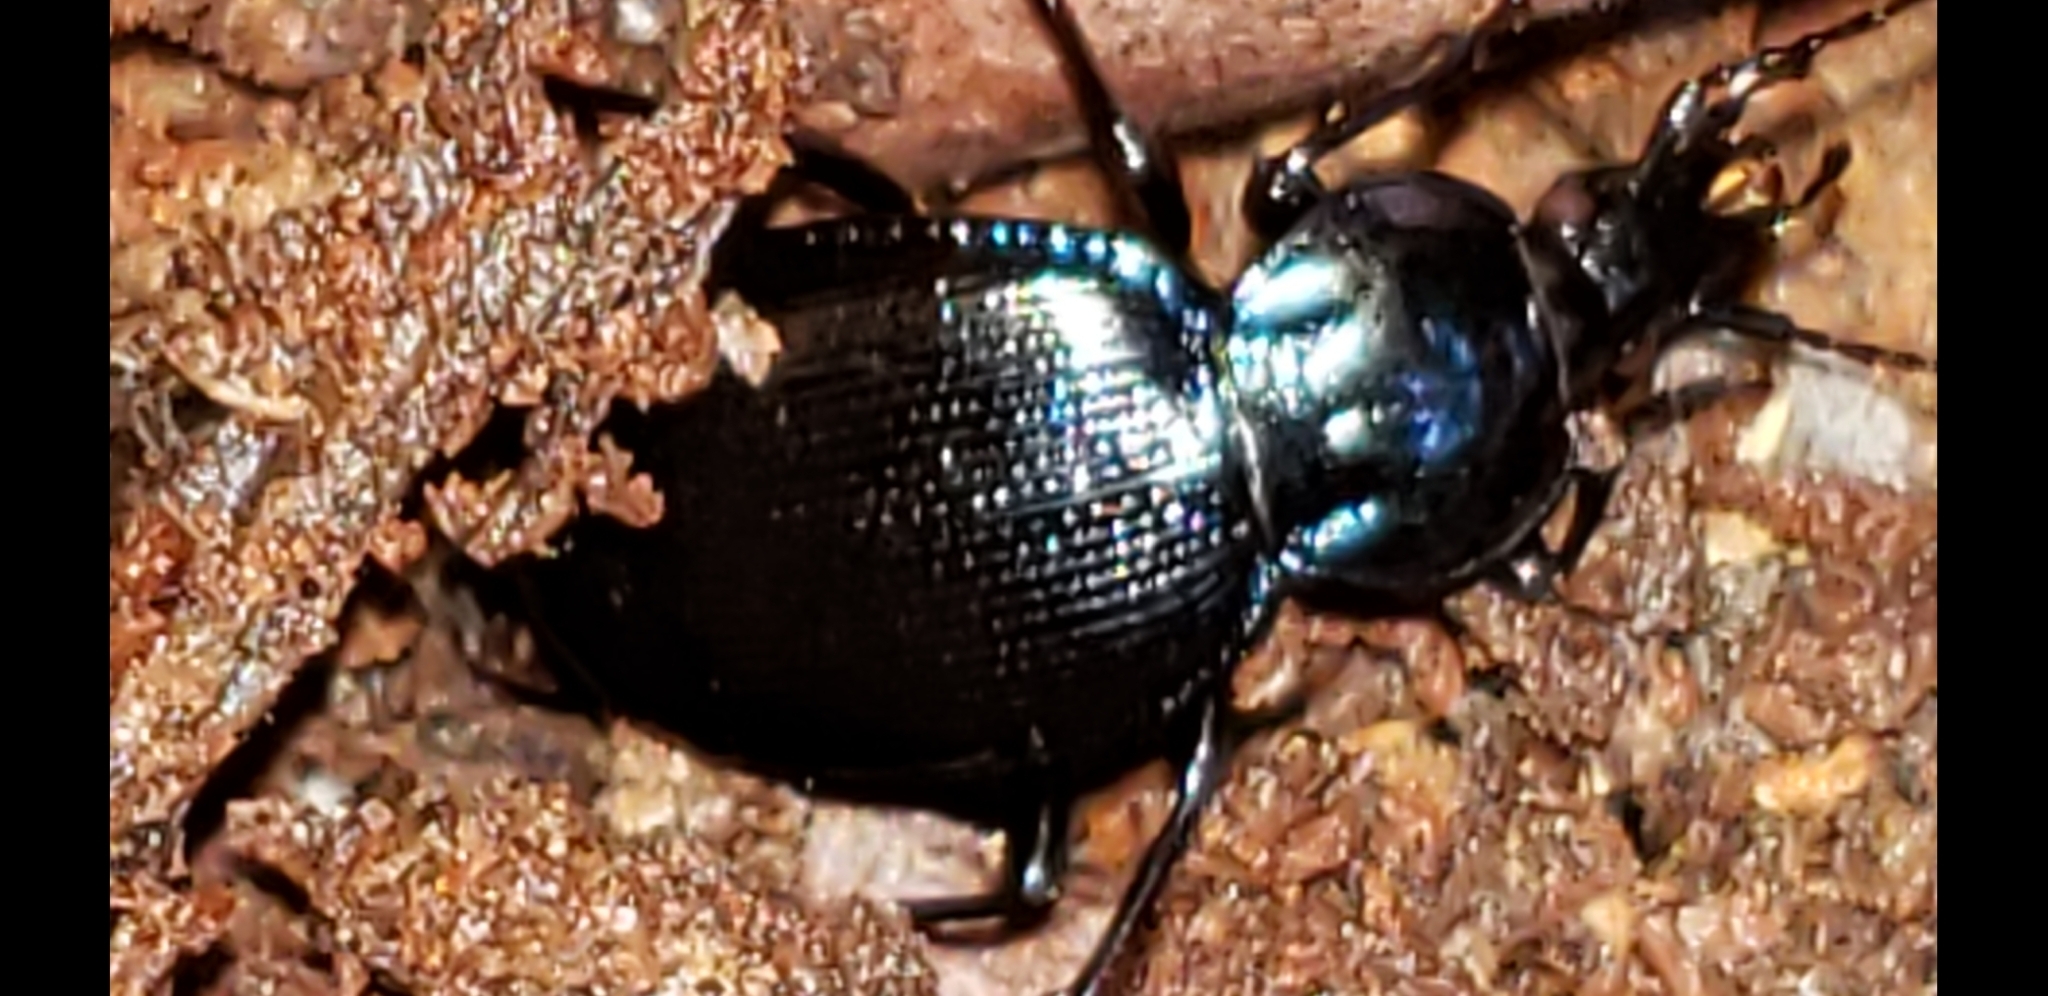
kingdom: Animalia
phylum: Arthropoda
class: Insecta
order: Coleoptera
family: Carabidae
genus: Sphaeroderus
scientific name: Sphaeroderus stenostomus
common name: Small snail-eating ground beetle
